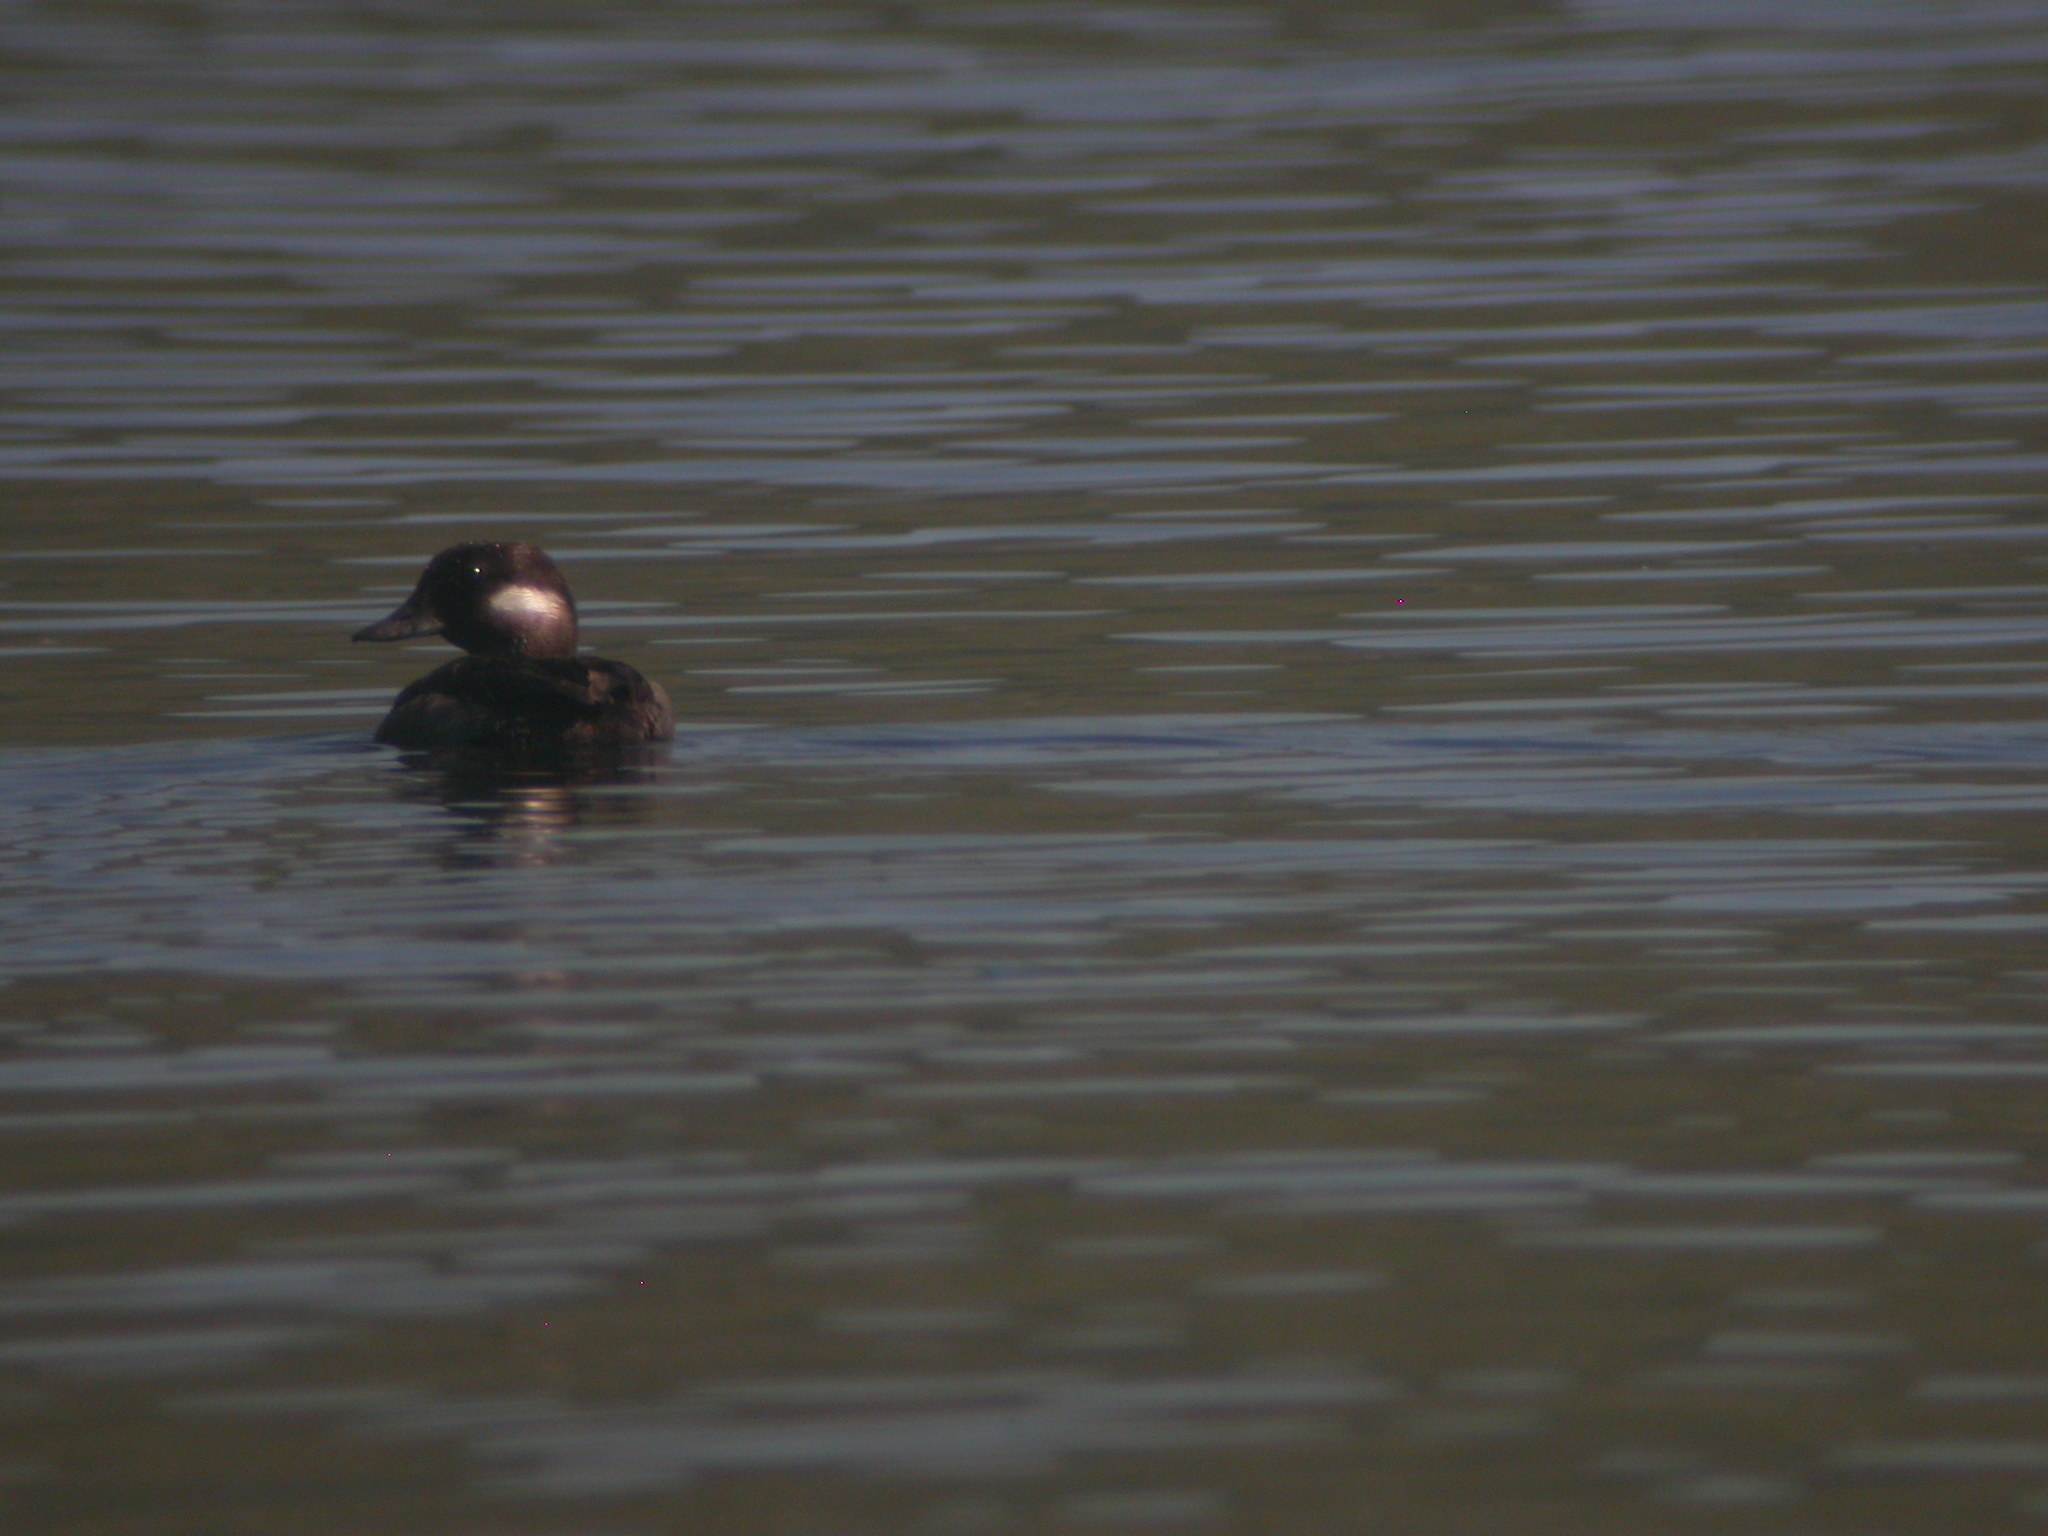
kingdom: Animalia
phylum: Chordata
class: Aves
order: Anseriformes
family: Anatidae
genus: Bucephala
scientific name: Bucephala albeola
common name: Bufflehead
